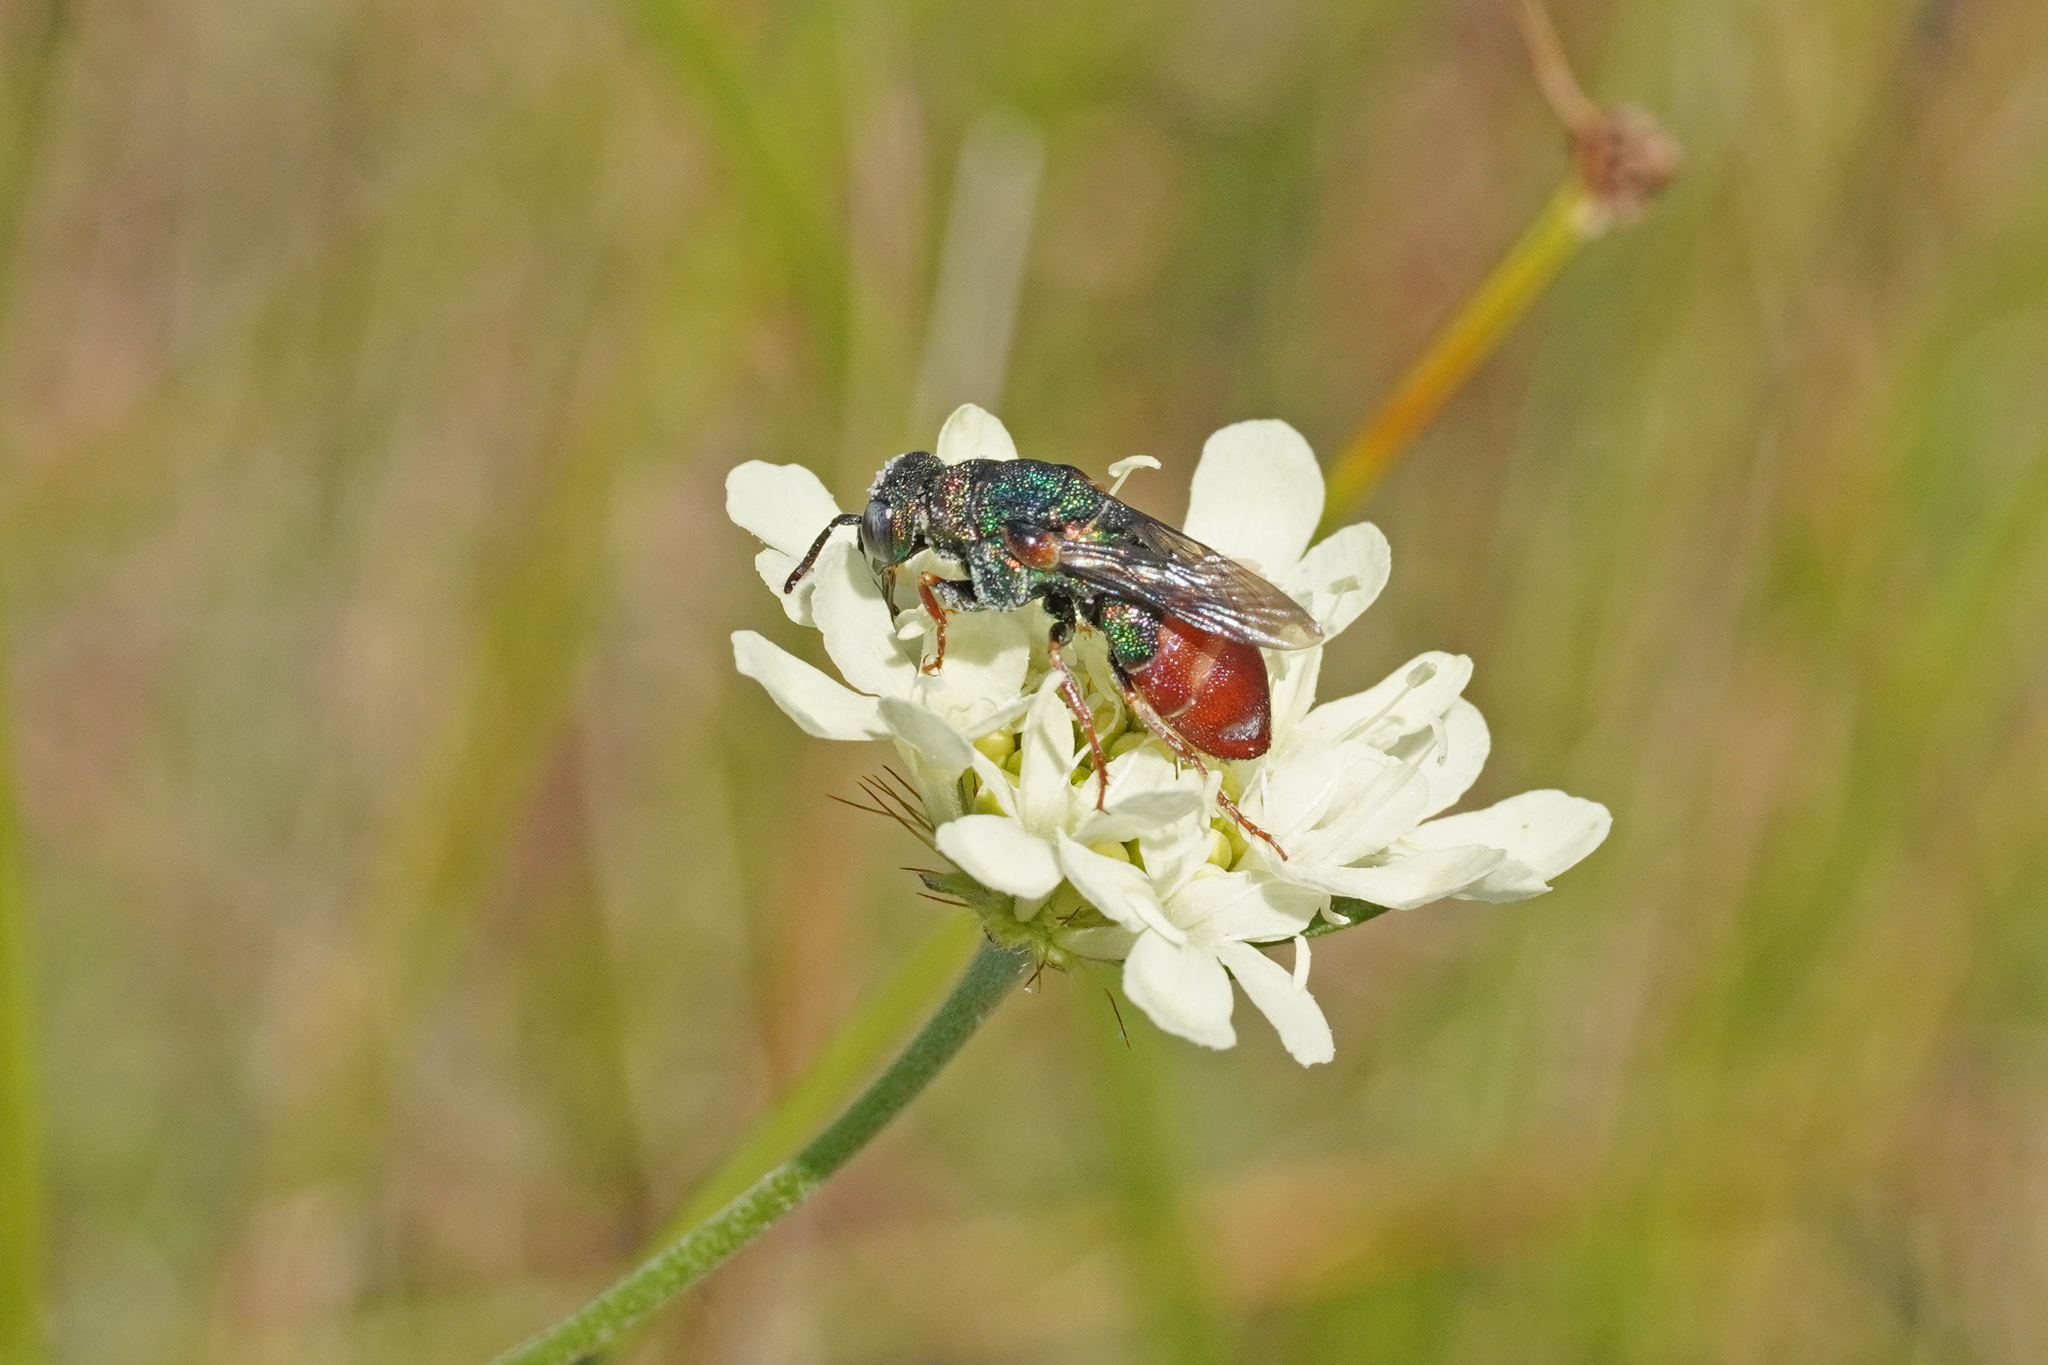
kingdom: Animalia
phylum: Arthropoda
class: Insecta
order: Hymenoptera
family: Chrysididae
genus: Parnopes
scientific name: Parnopes grandior
